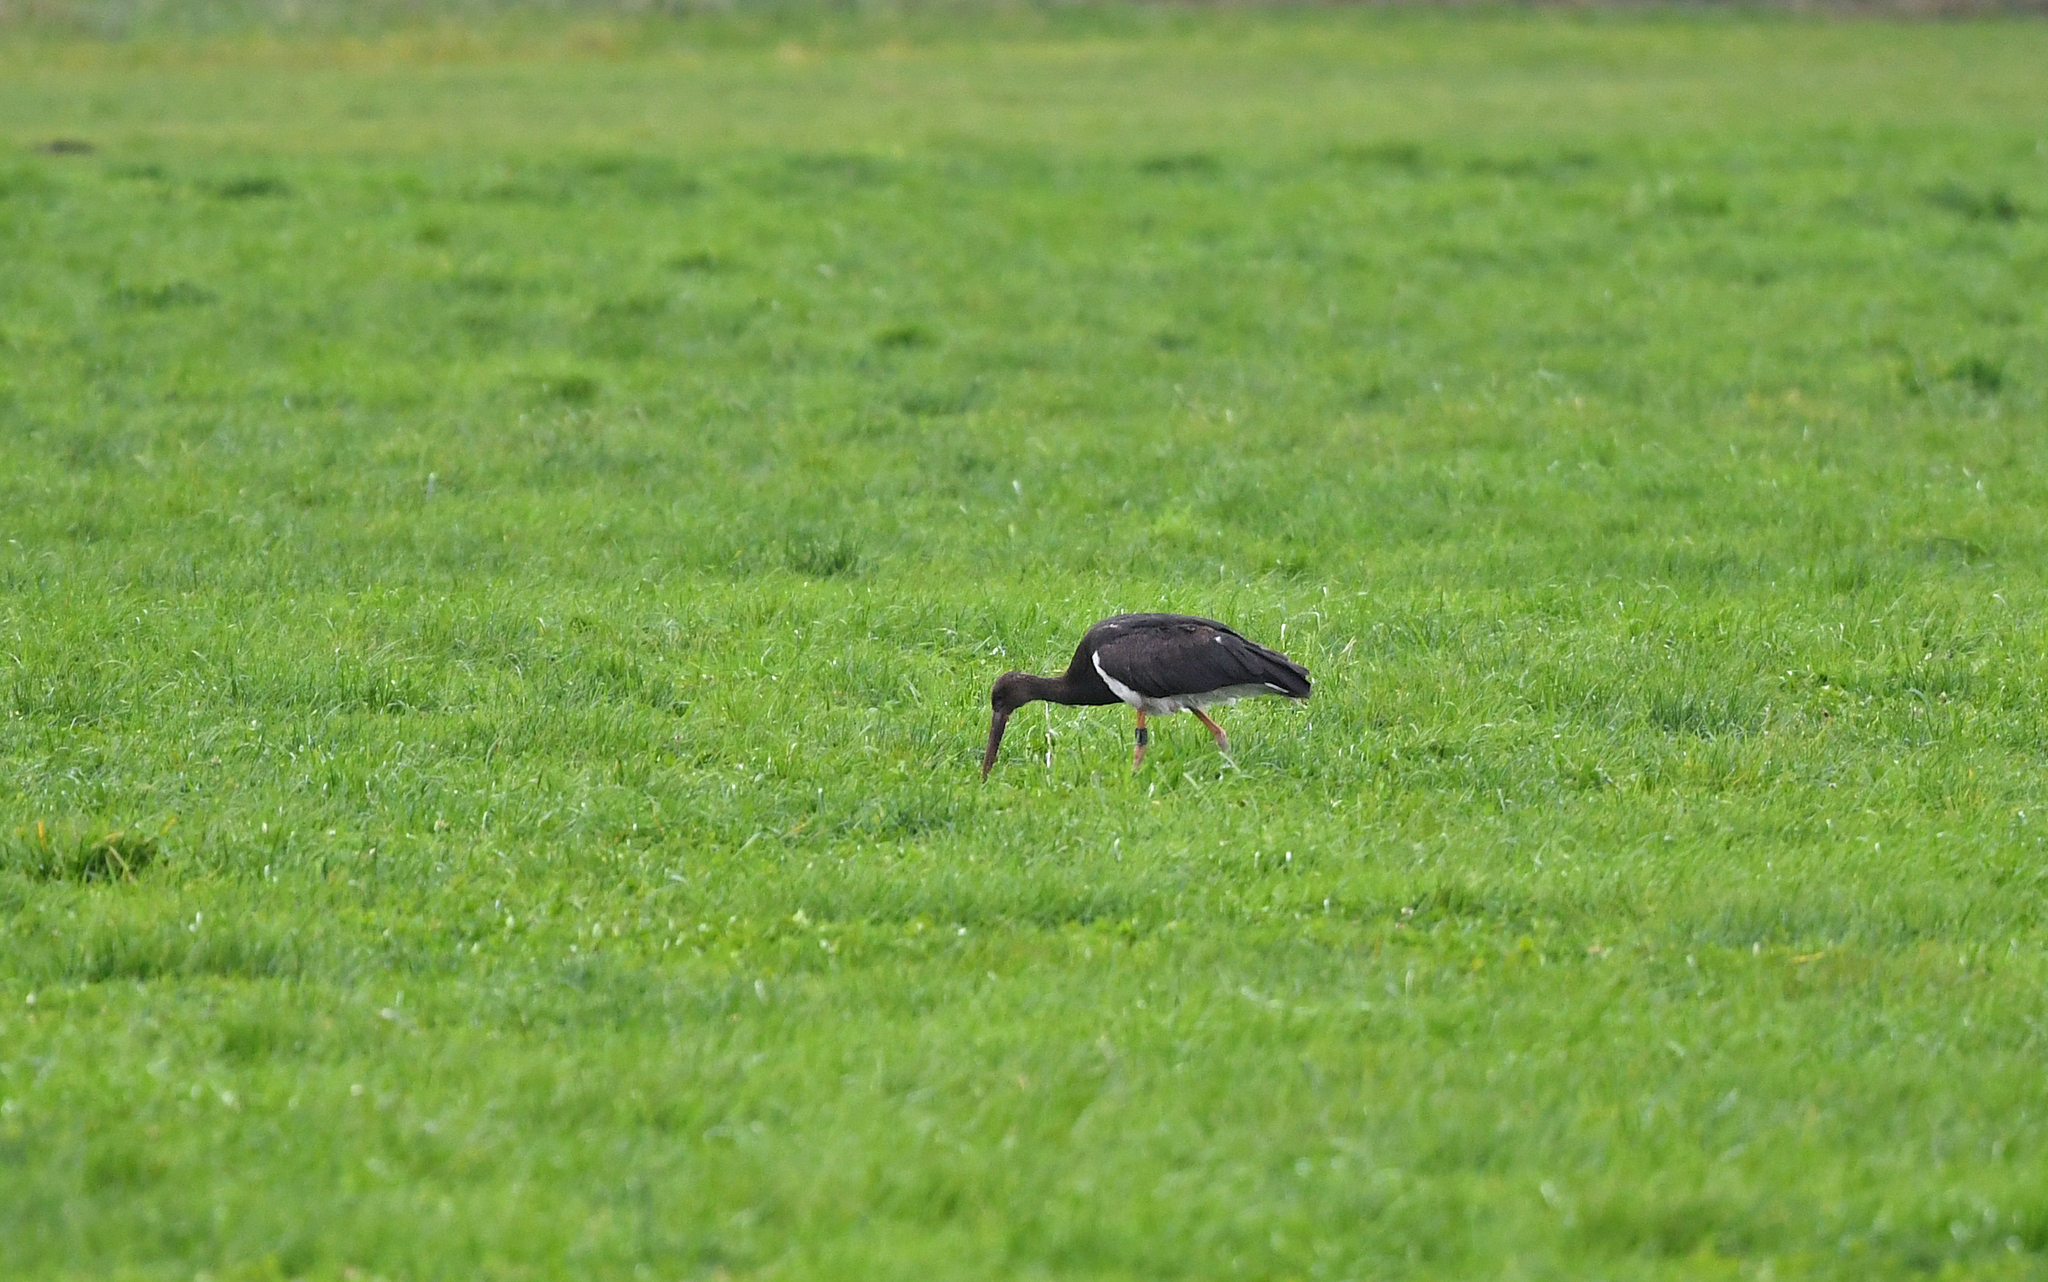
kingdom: Animalia
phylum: Chordata
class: Aves
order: Ciconiiformes
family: Ciconiidae
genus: Ciconia
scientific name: Ciconia nigra
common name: Black stork
